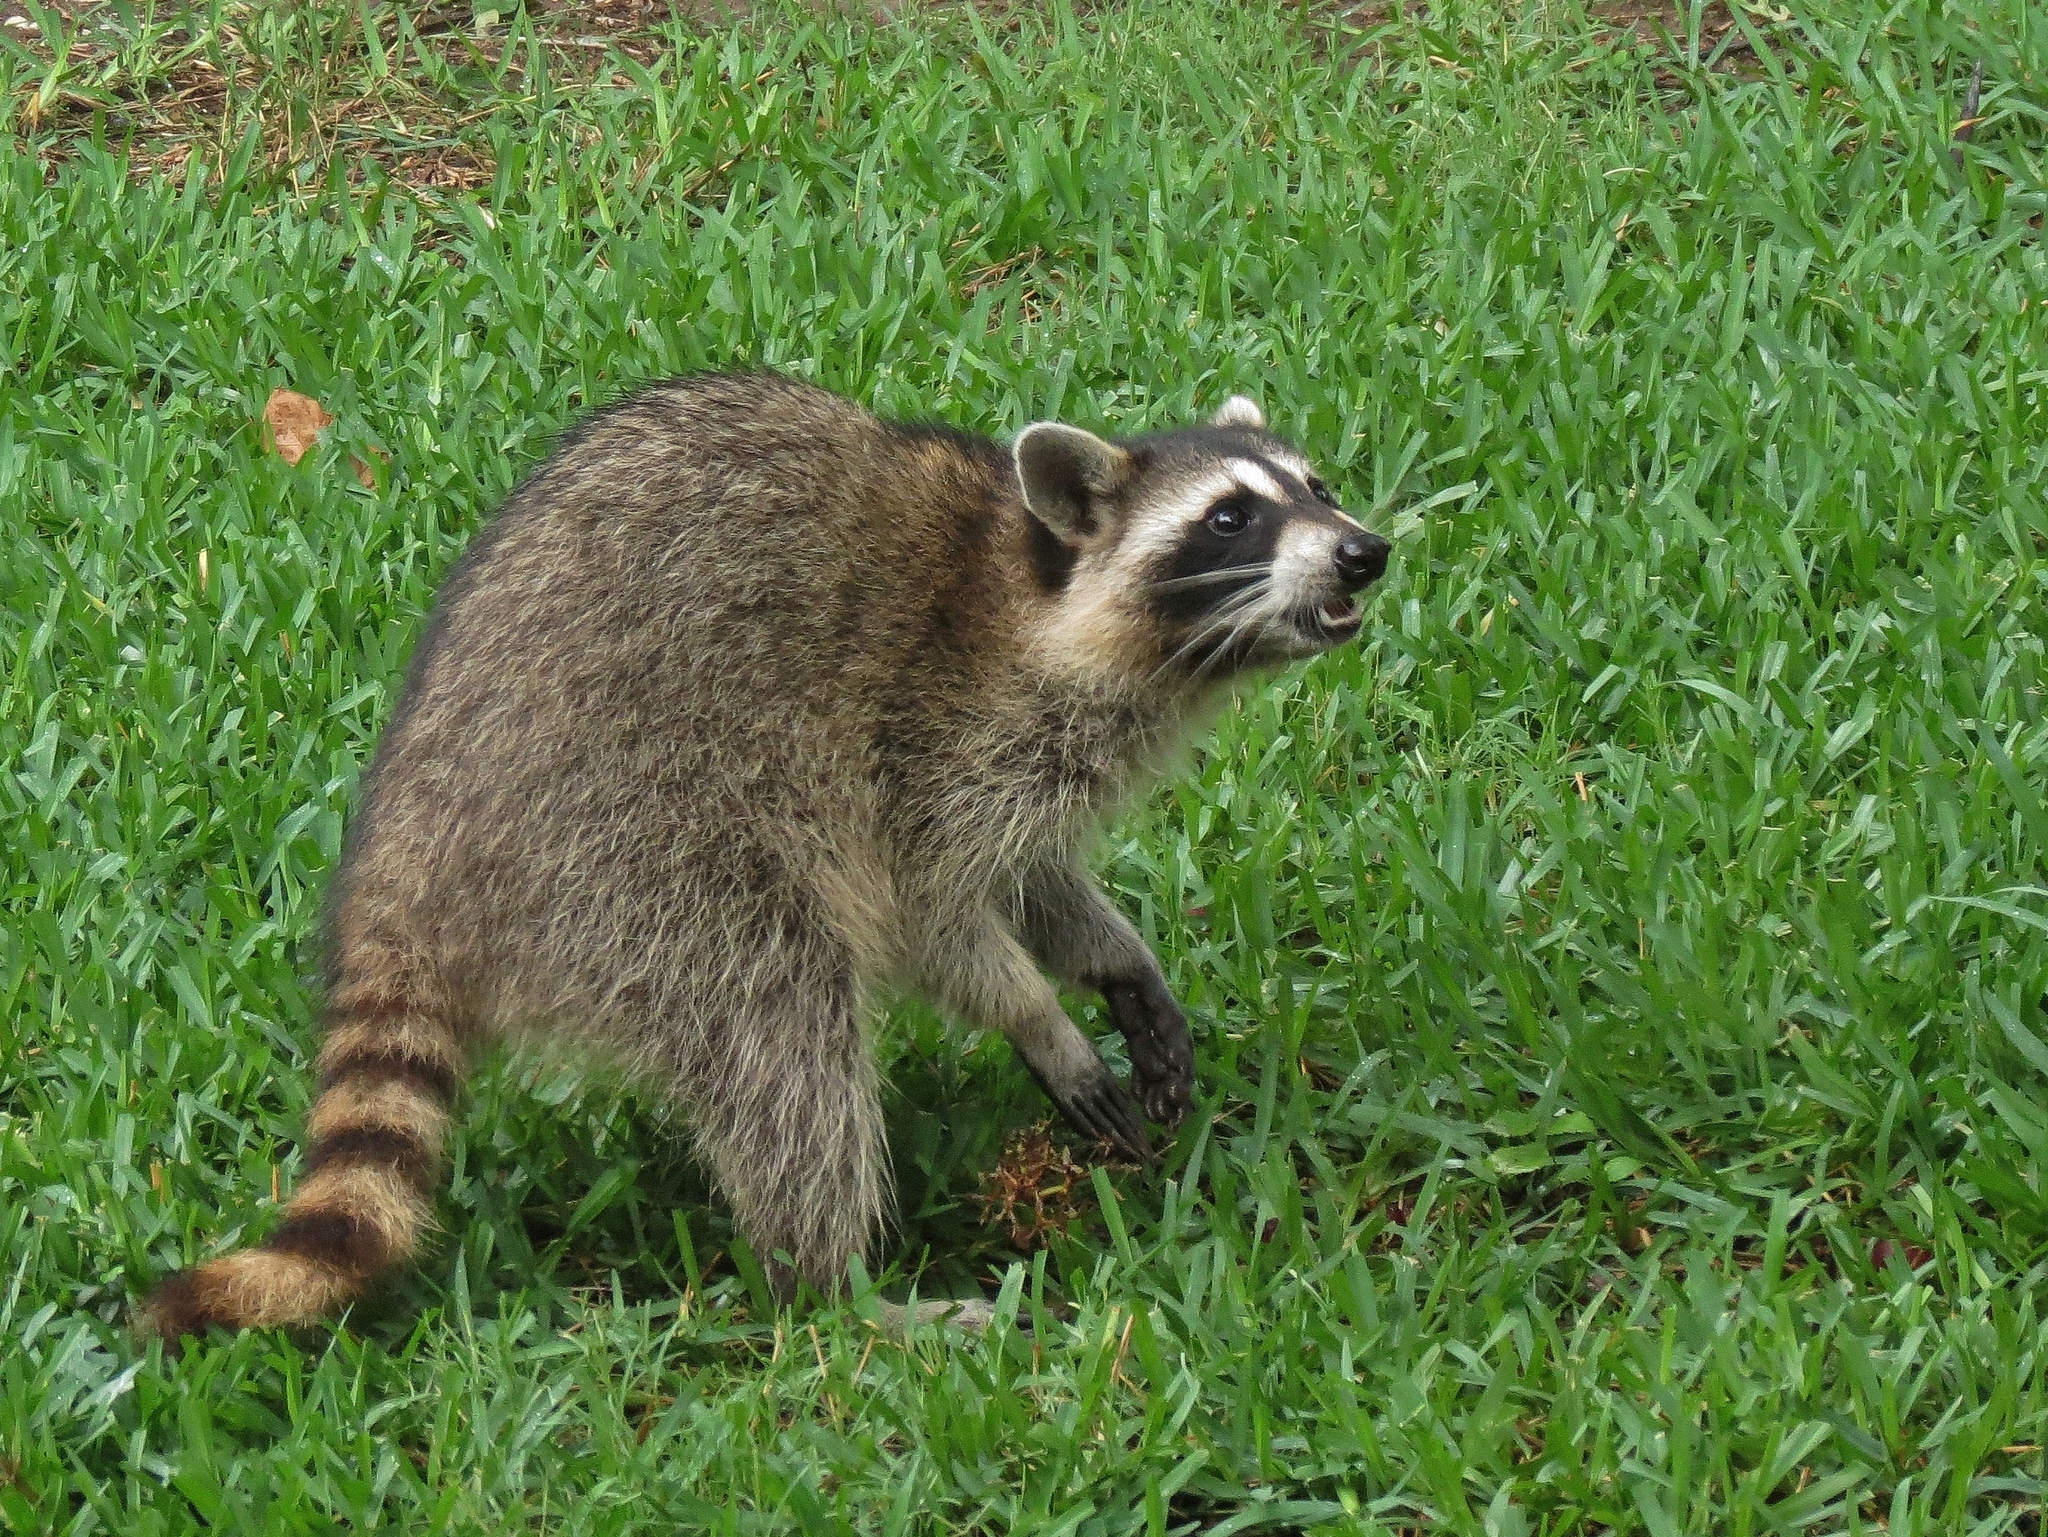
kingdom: Animalia
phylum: Chordata
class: Mammalia
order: Carnivora
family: Procyonidae
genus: Procyon
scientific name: Procyon lotor
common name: Raccoon
